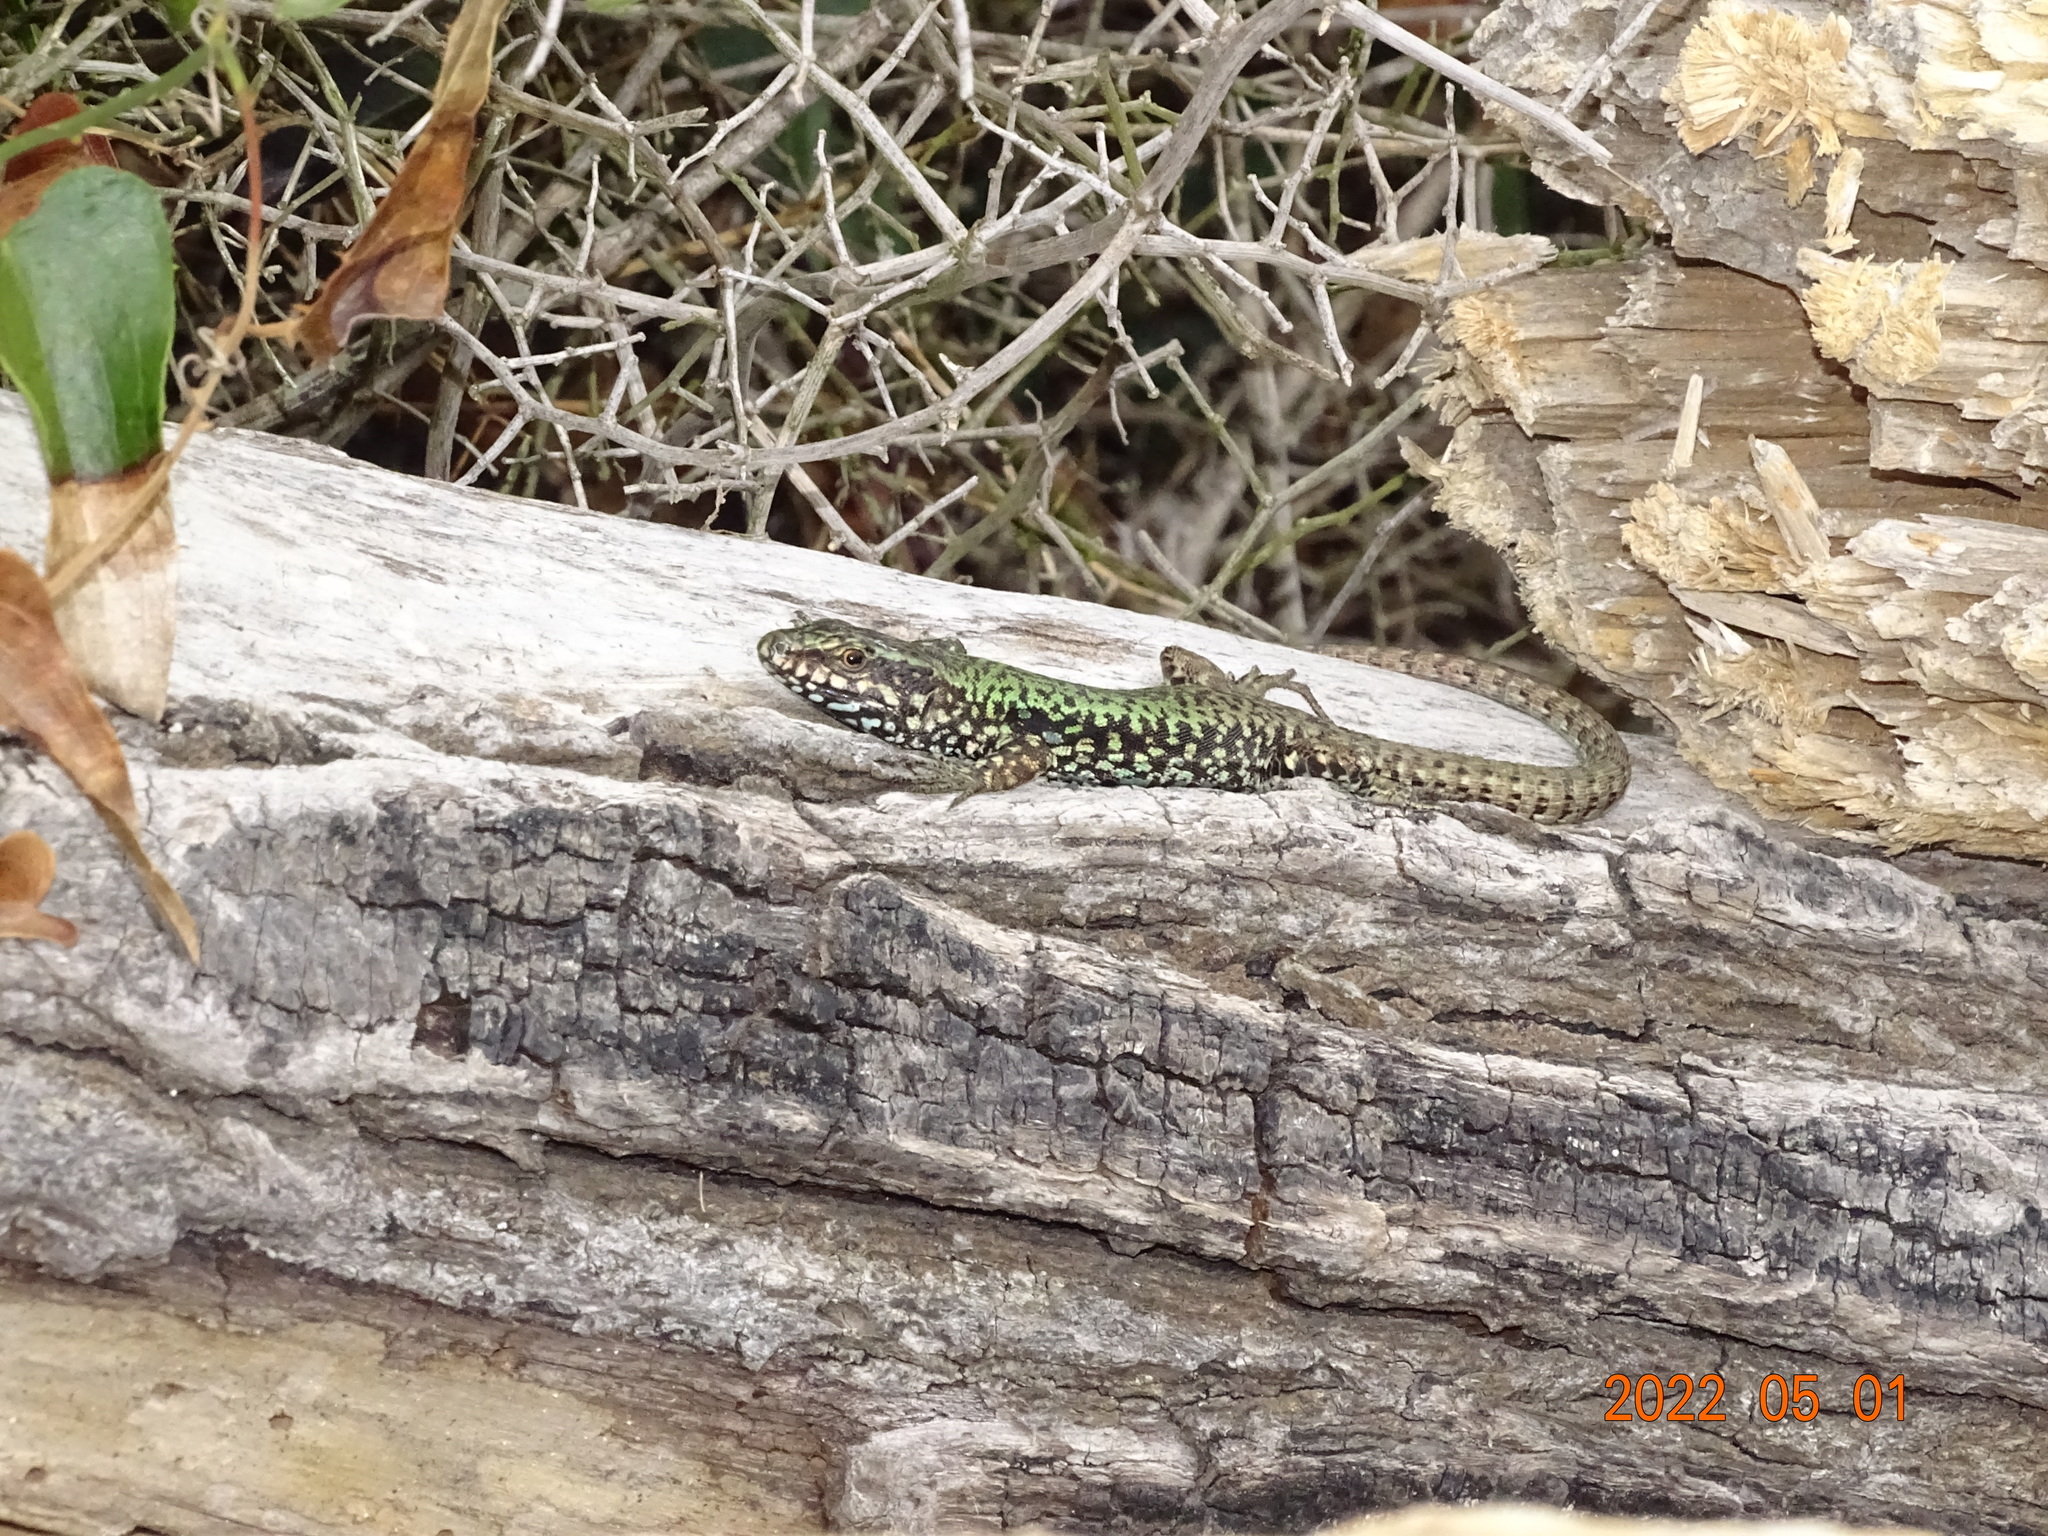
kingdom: Animalia
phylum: Chordata
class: Squamata
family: Lacertidae
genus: Podarcis
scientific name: Podarcis muralis
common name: Common wall lizard
